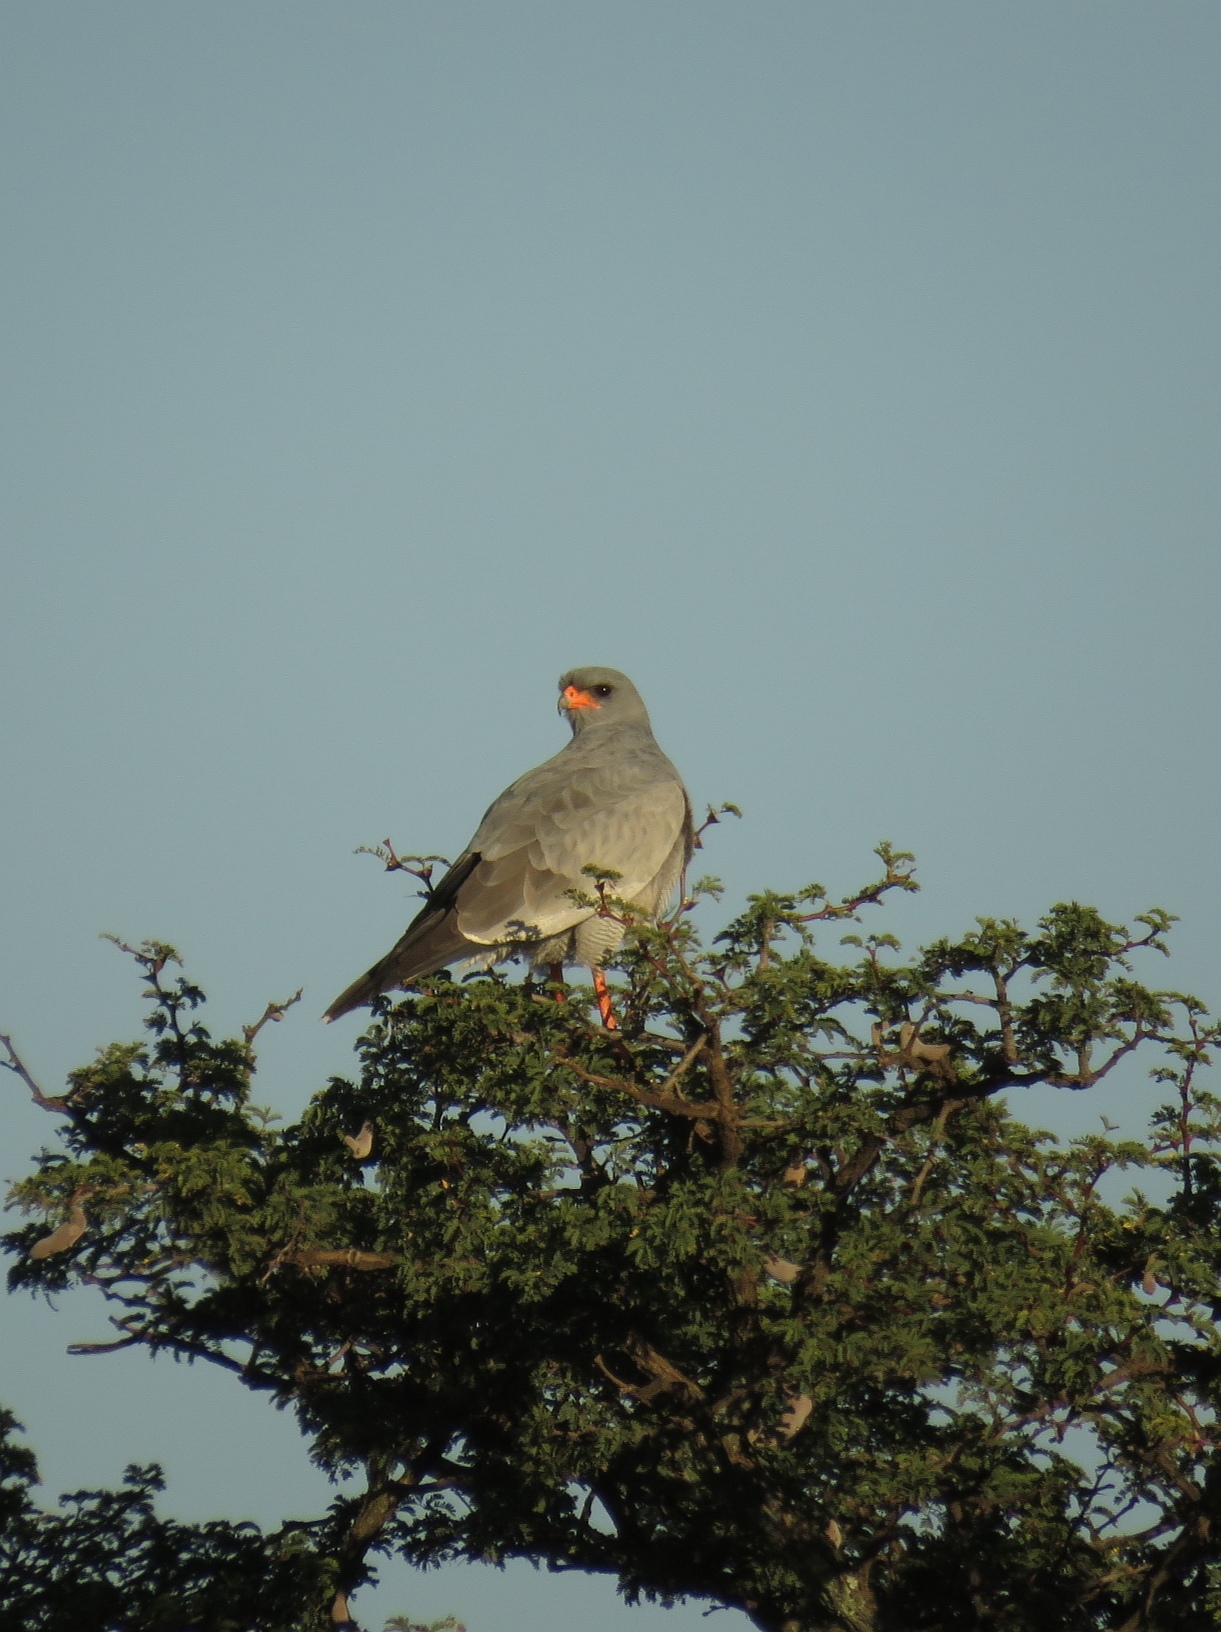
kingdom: Animalia
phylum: Chordata
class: Aves
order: Accipitriformes
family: Accipitridae
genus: Melierax
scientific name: Melierax canorus
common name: Pale chanting-goshawk
